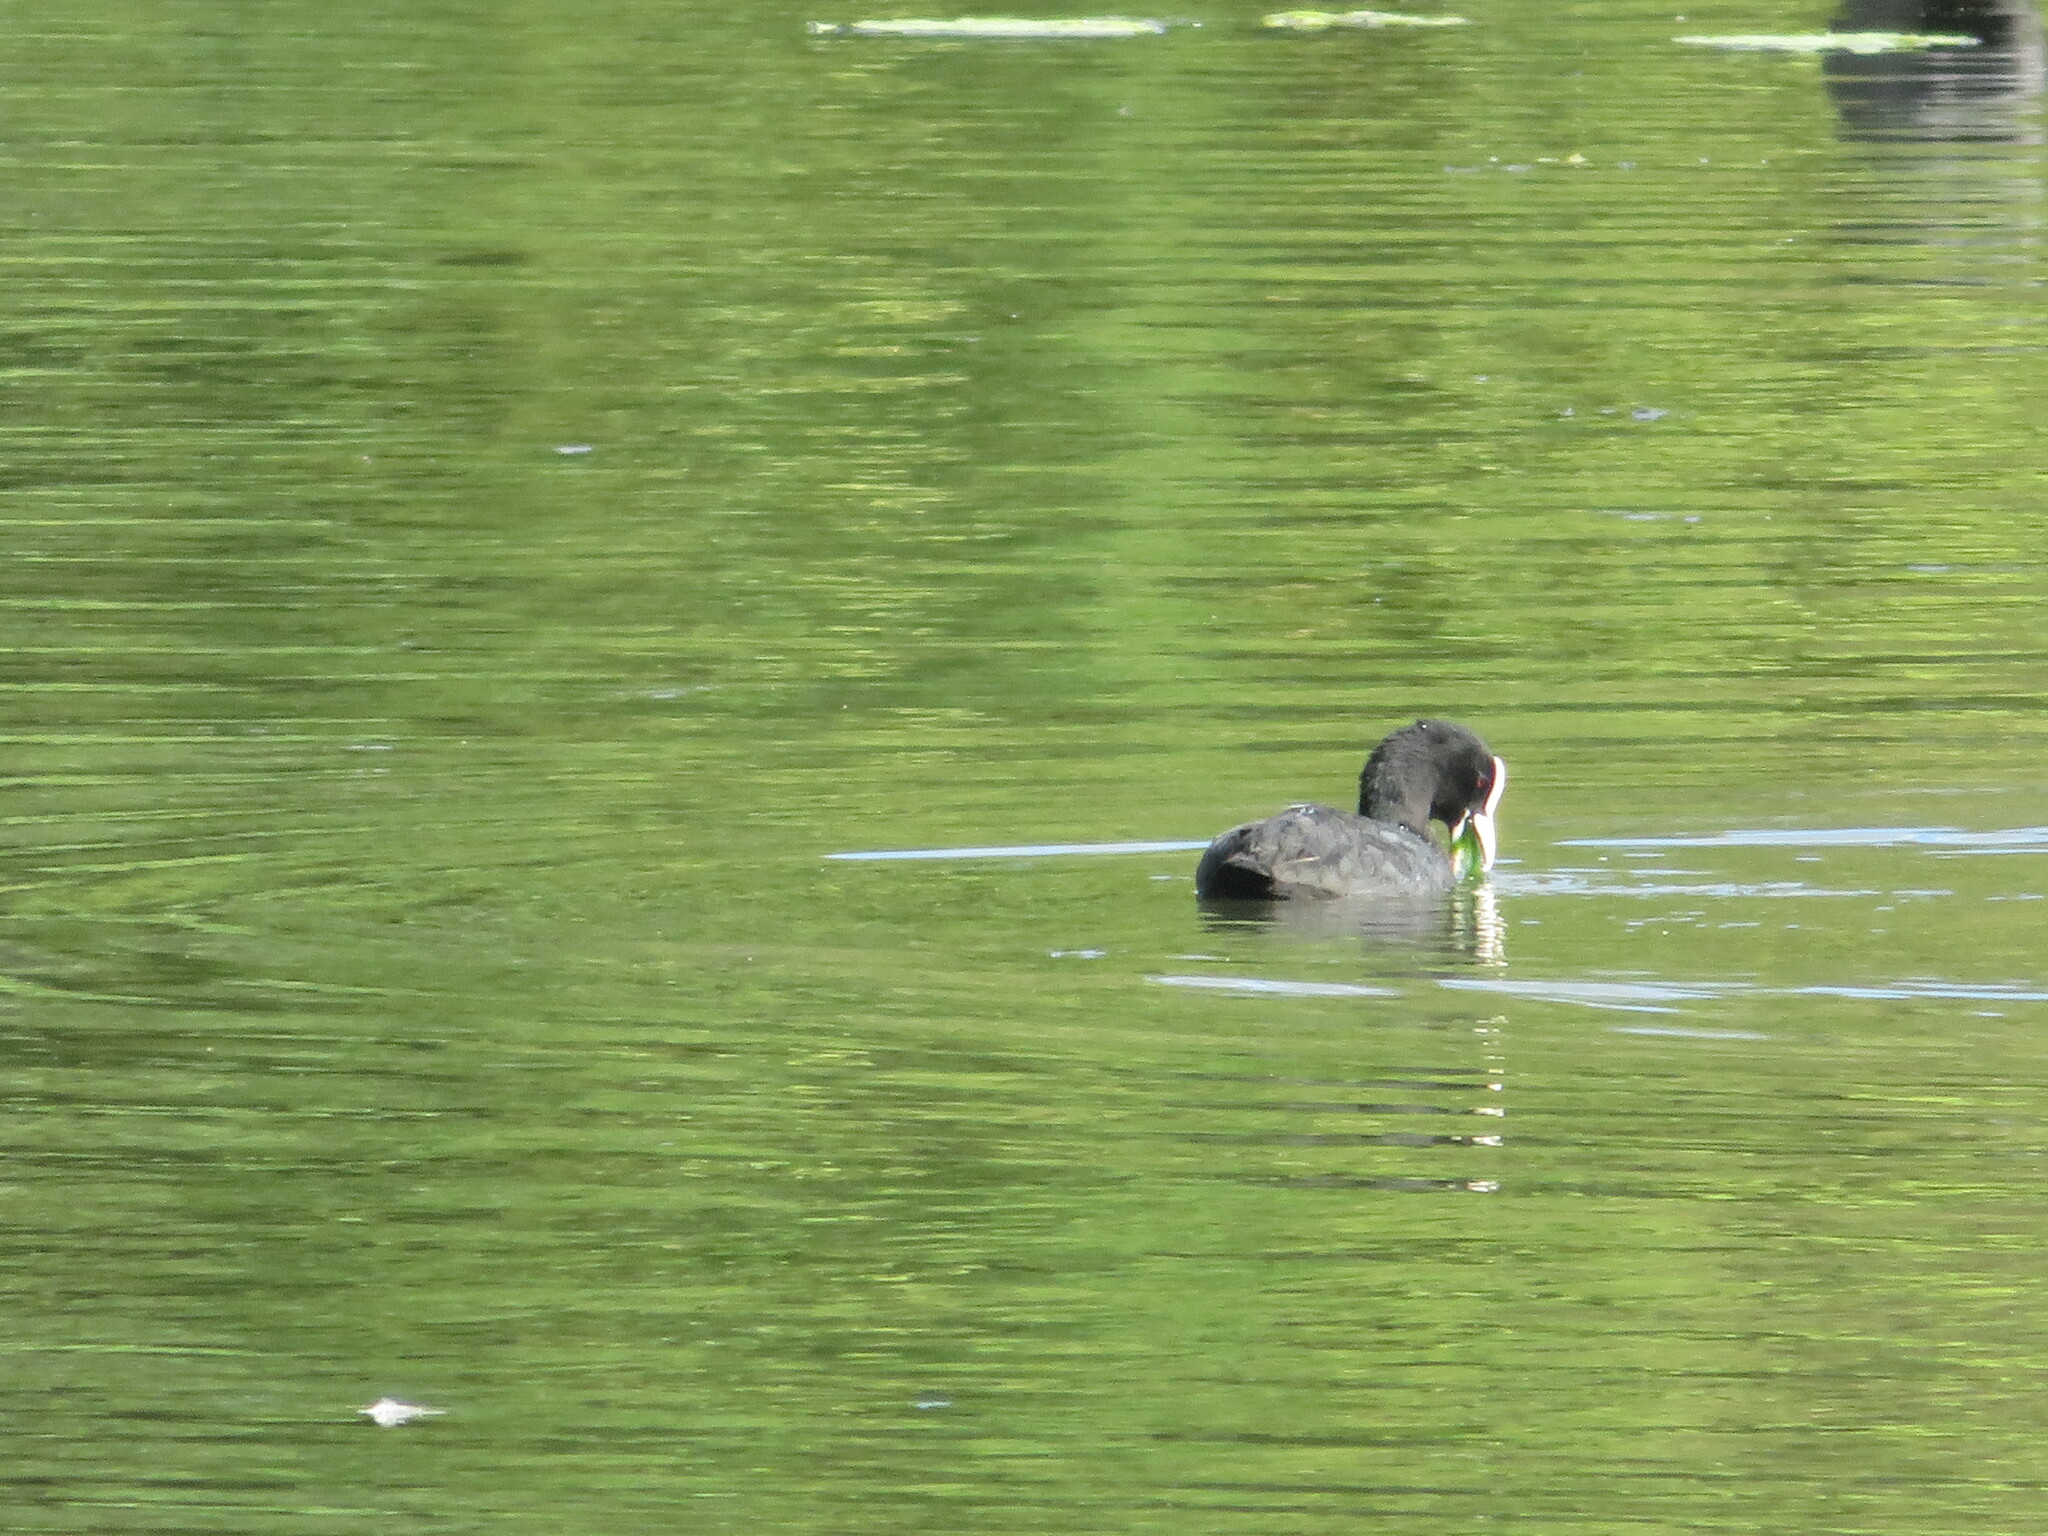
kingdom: Animalia
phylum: Chordata
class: Aves
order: Gruiformes
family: Rallidae
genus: Fulica
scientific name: Fulica atra
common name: Eurasian coot
